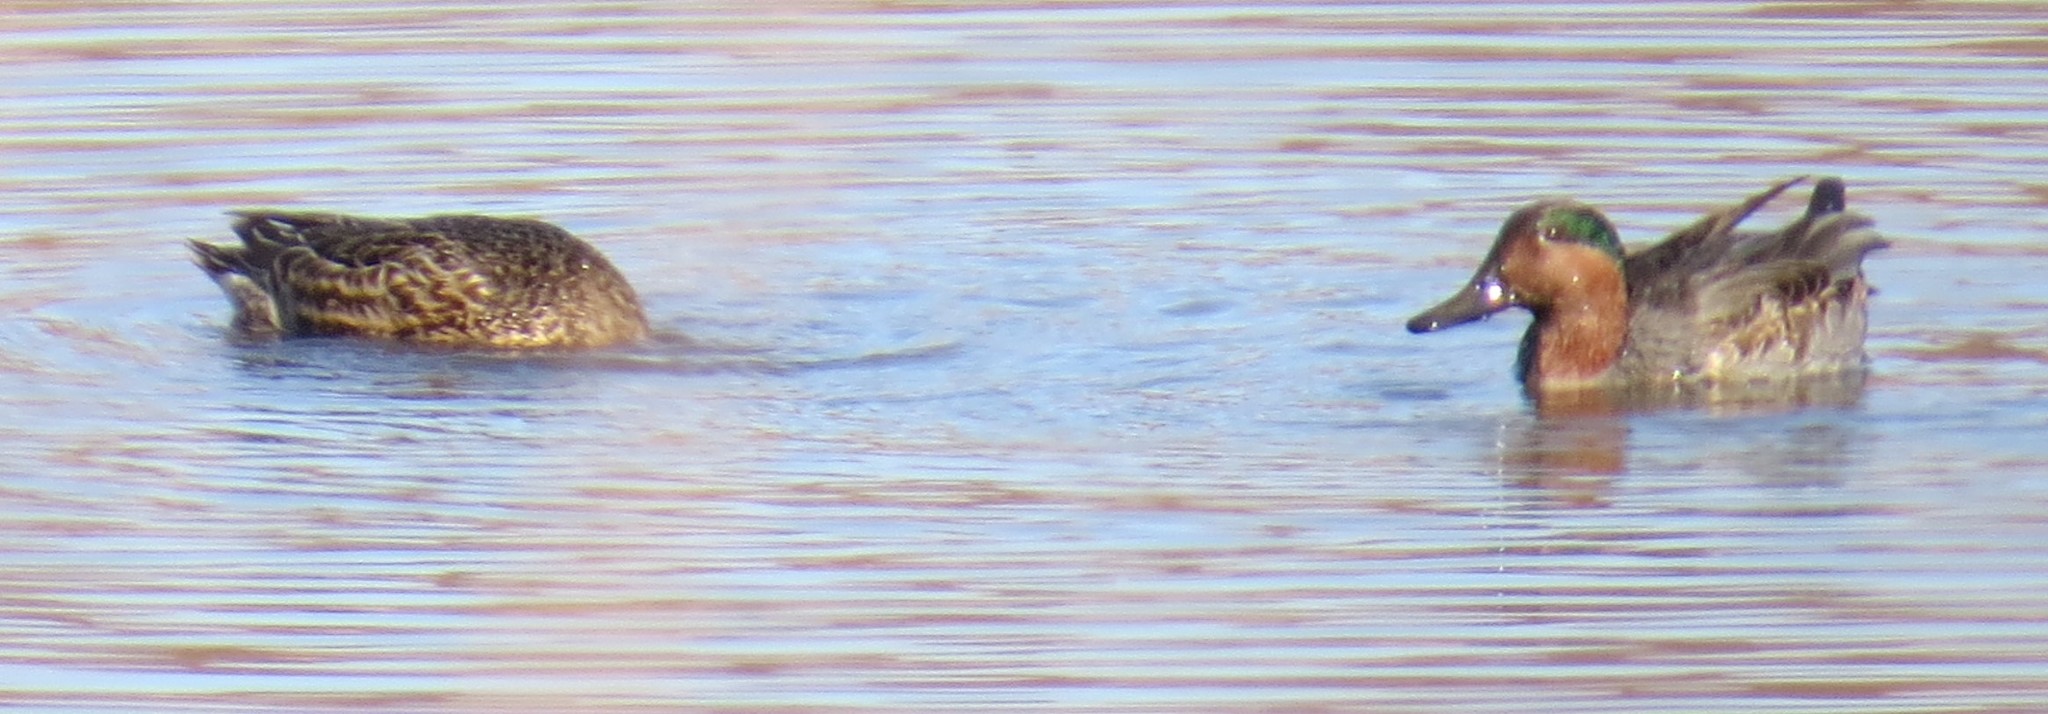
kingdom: Animalia
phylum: Chordata
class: Aves
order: Anseriformes
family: Anatidae
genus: Anas
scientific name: Anas crecca
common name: Eurasian teal
